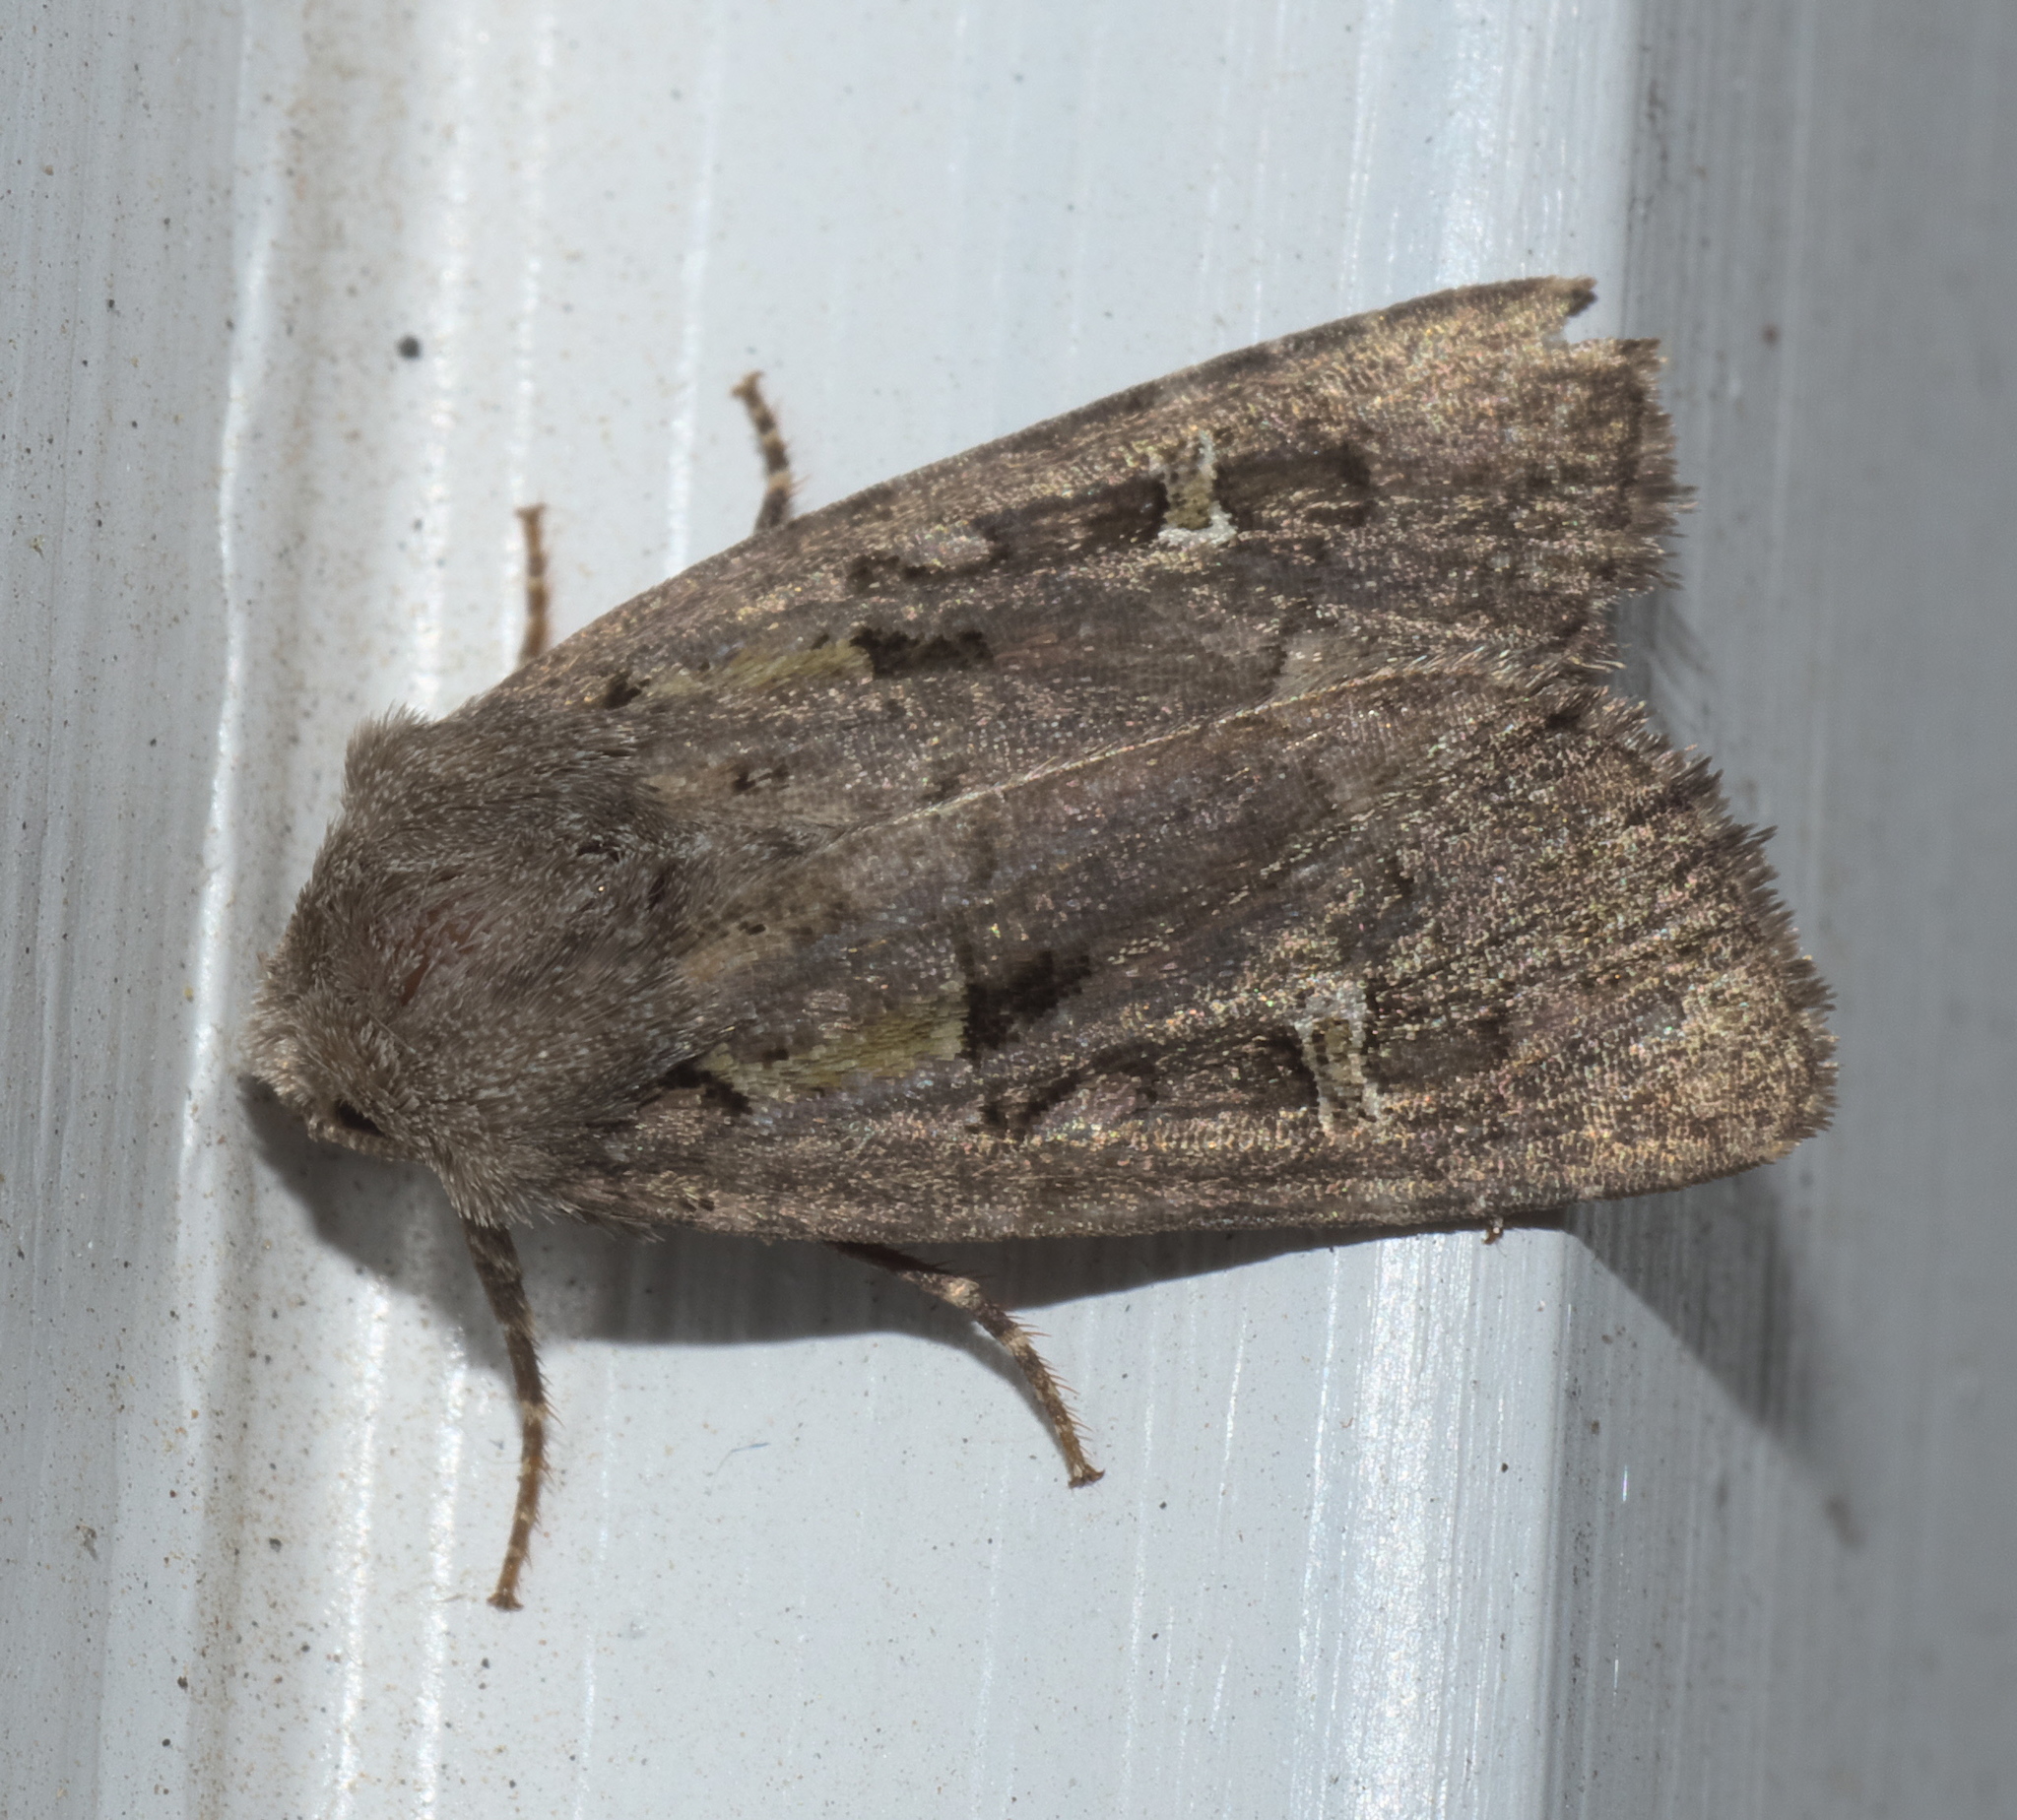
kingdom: Animalia
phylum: Arthropoda
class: Insecta
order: Lepidoptera
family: Noctuidae
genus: Lacinipolia
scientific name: Lacinipolia renigera
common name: Kidney-spotted minor
